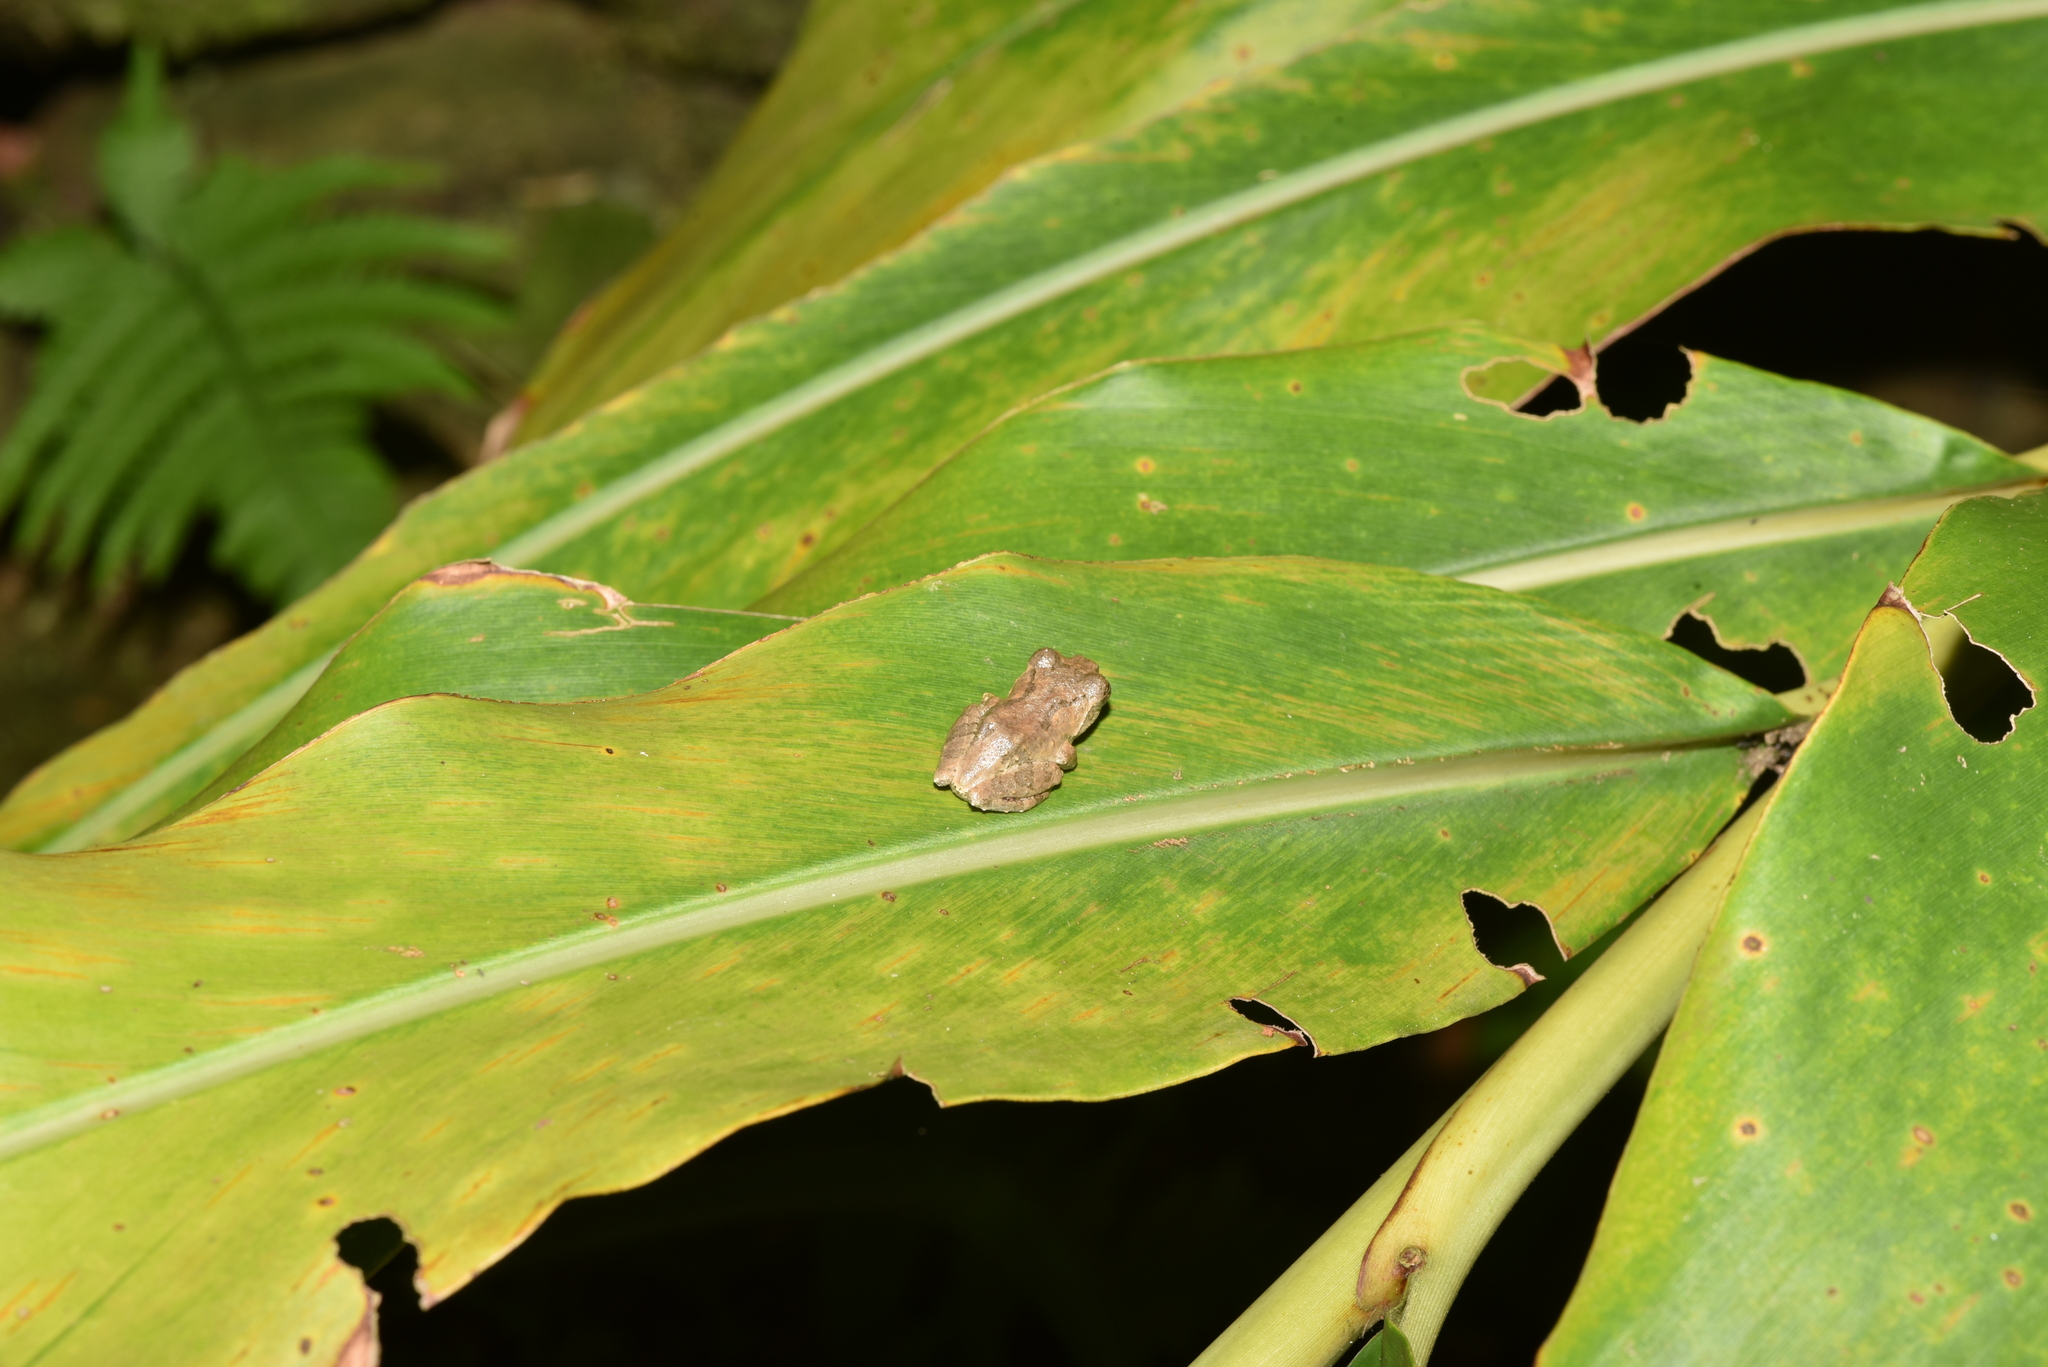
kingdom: Animalia
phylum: Chordata
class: Amphibia
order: Anura
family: Rhacophoridae
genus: Kurixalus
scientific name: Kurixalus idiootocus
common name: Temple treefrog
